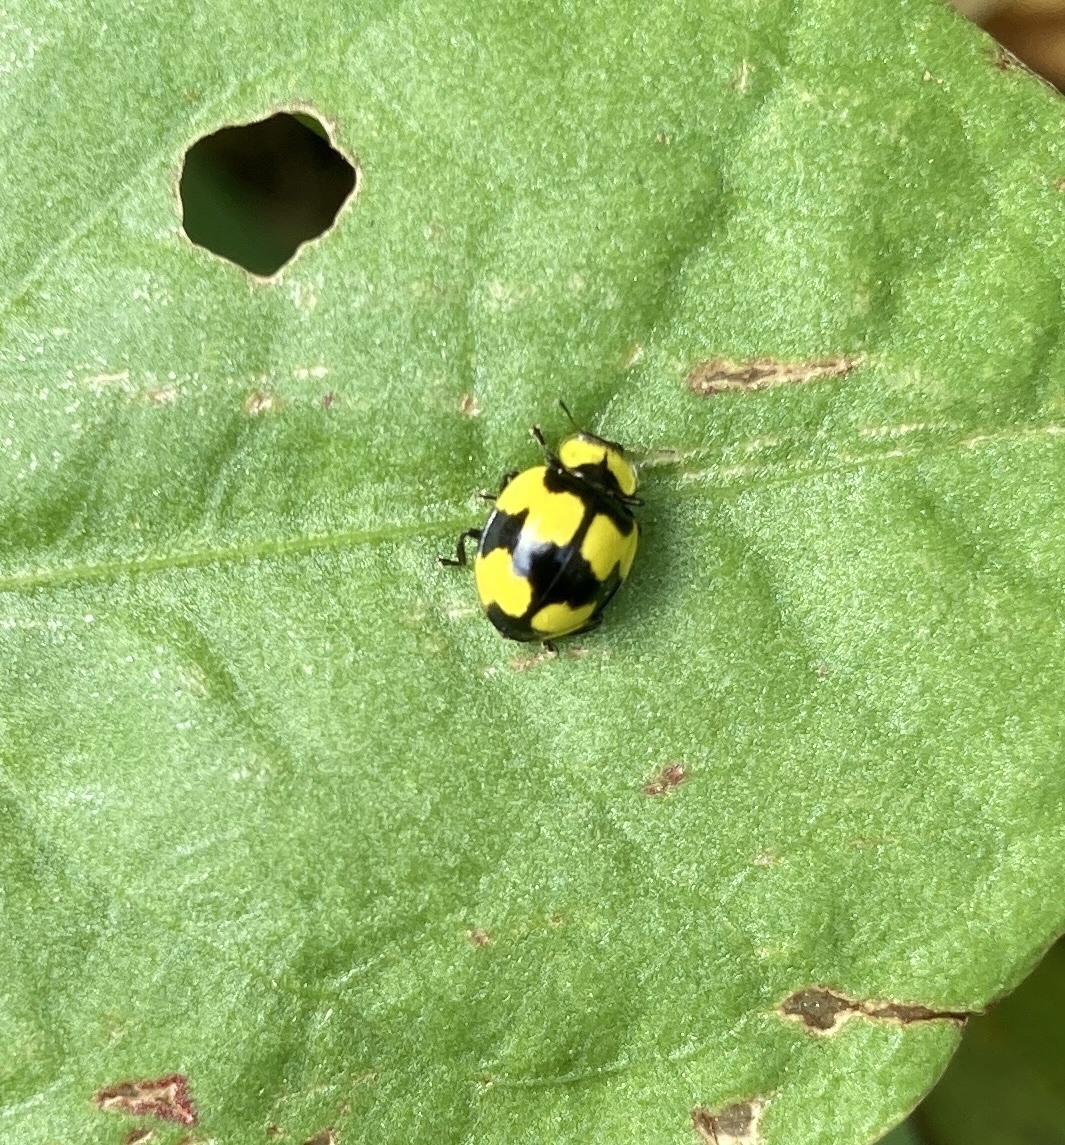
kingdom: Animalia
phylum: Arthropoda
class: Insecta
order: Coleoptera
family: Coccinellidae
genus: Illeis
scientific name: Illeis galbula
